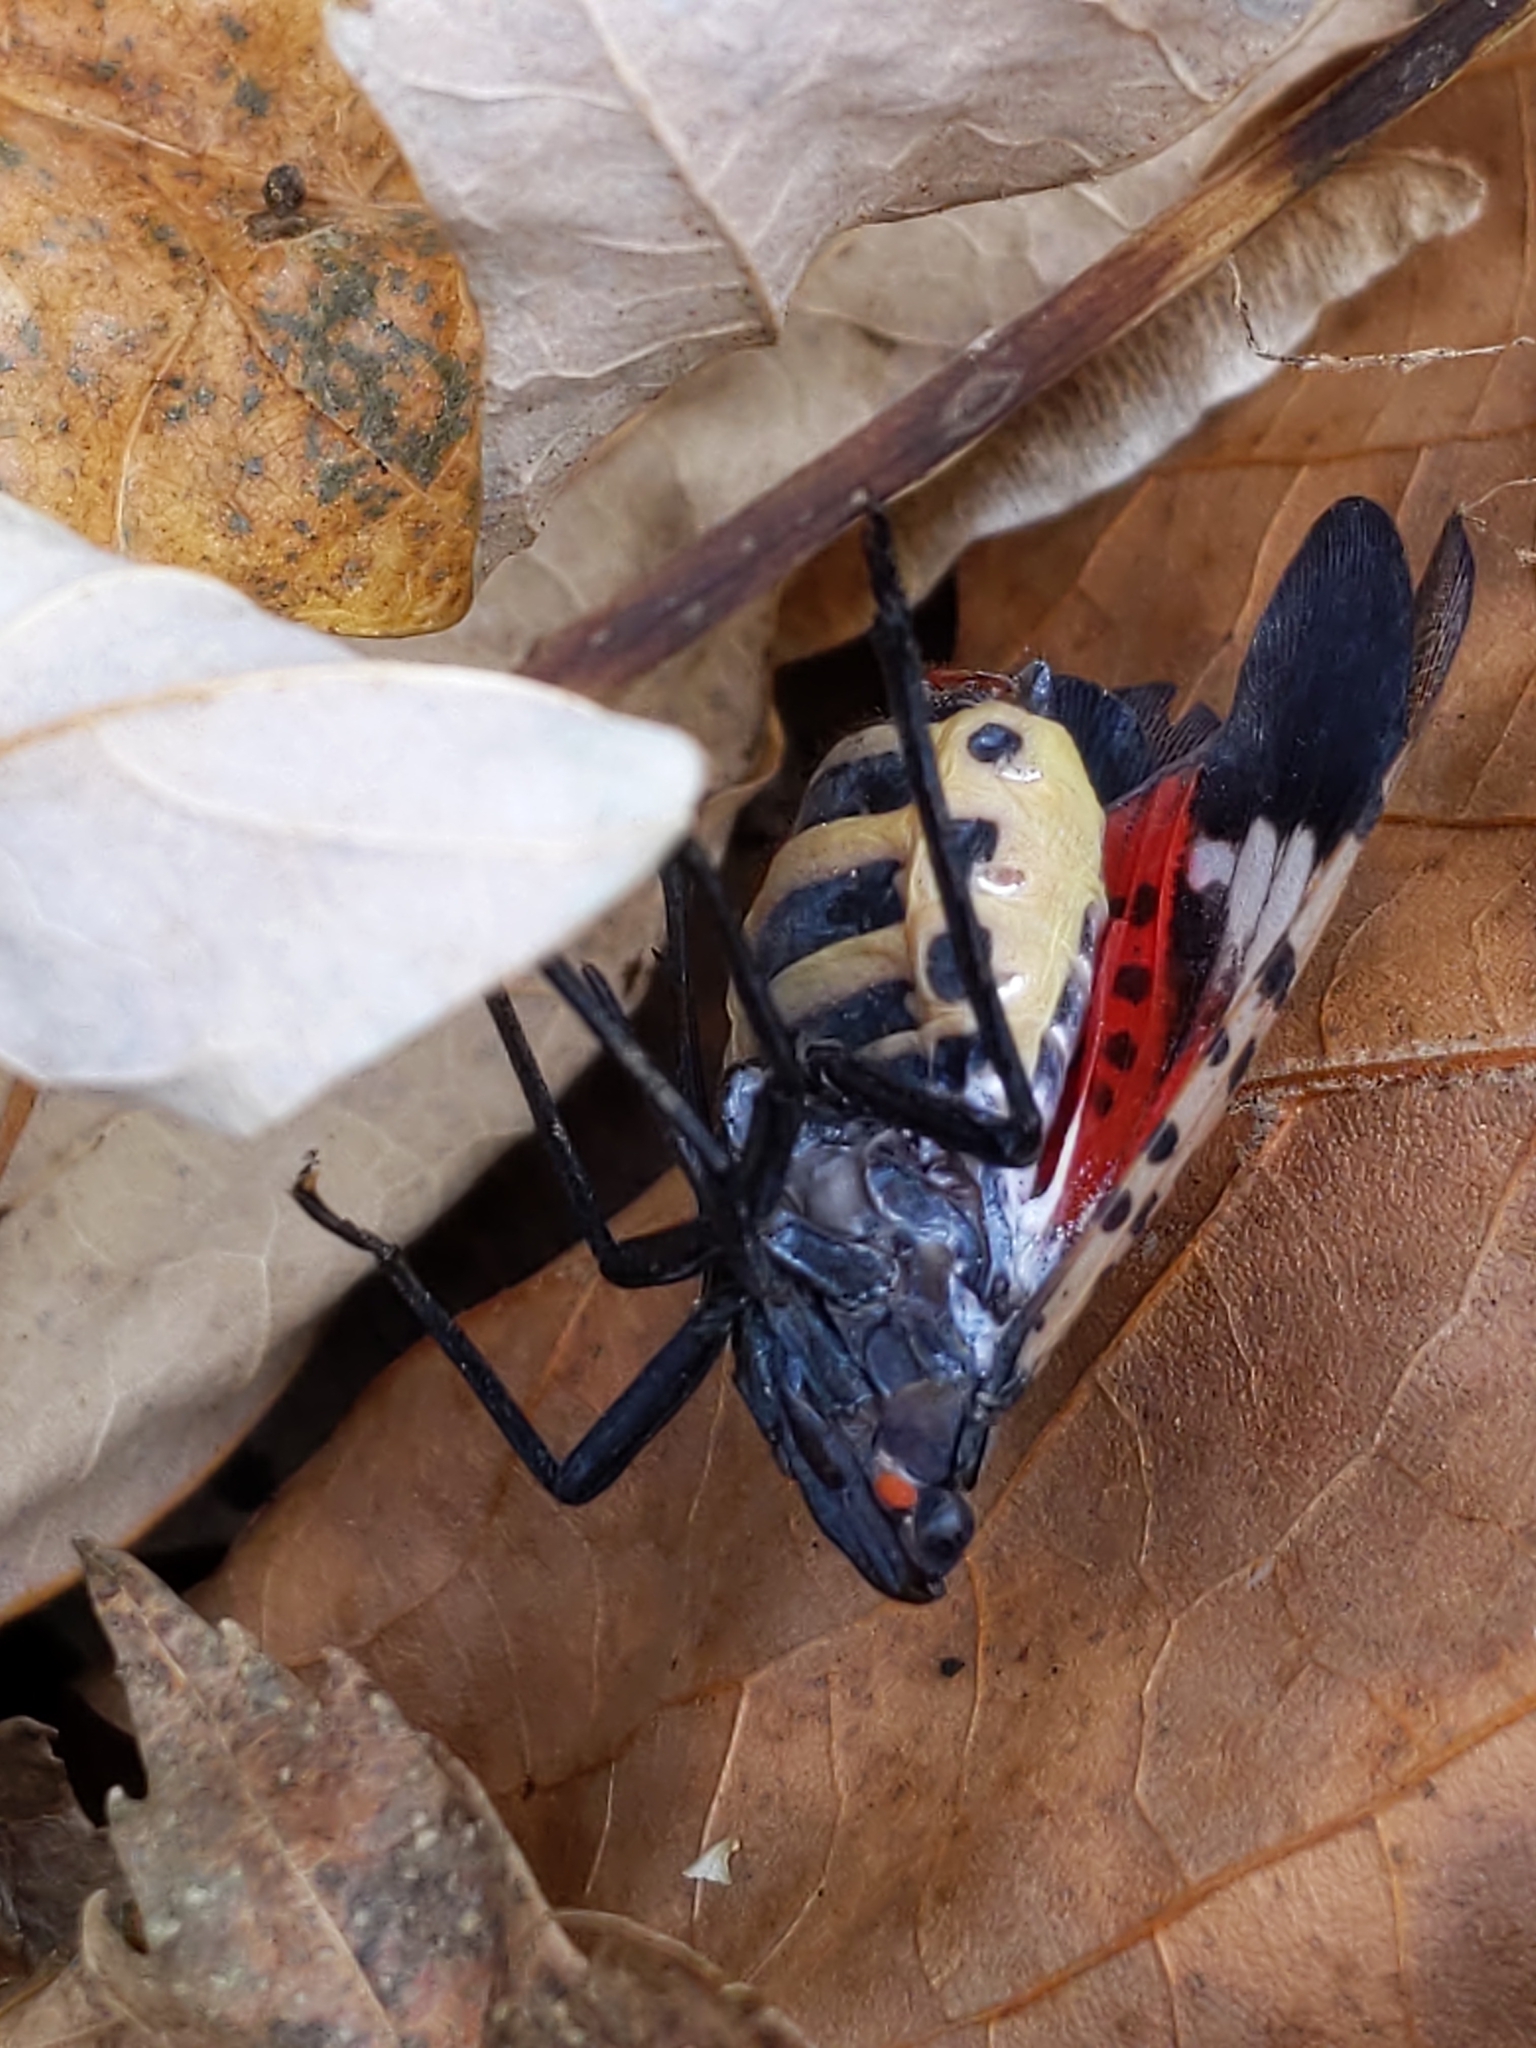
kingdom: Animalia
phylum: Arthropoda
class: Insecta
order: Hemiptera
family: Fulgoridae
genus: Lycorma
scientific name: Lycorma delicatula
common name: Spotted lanternfly
